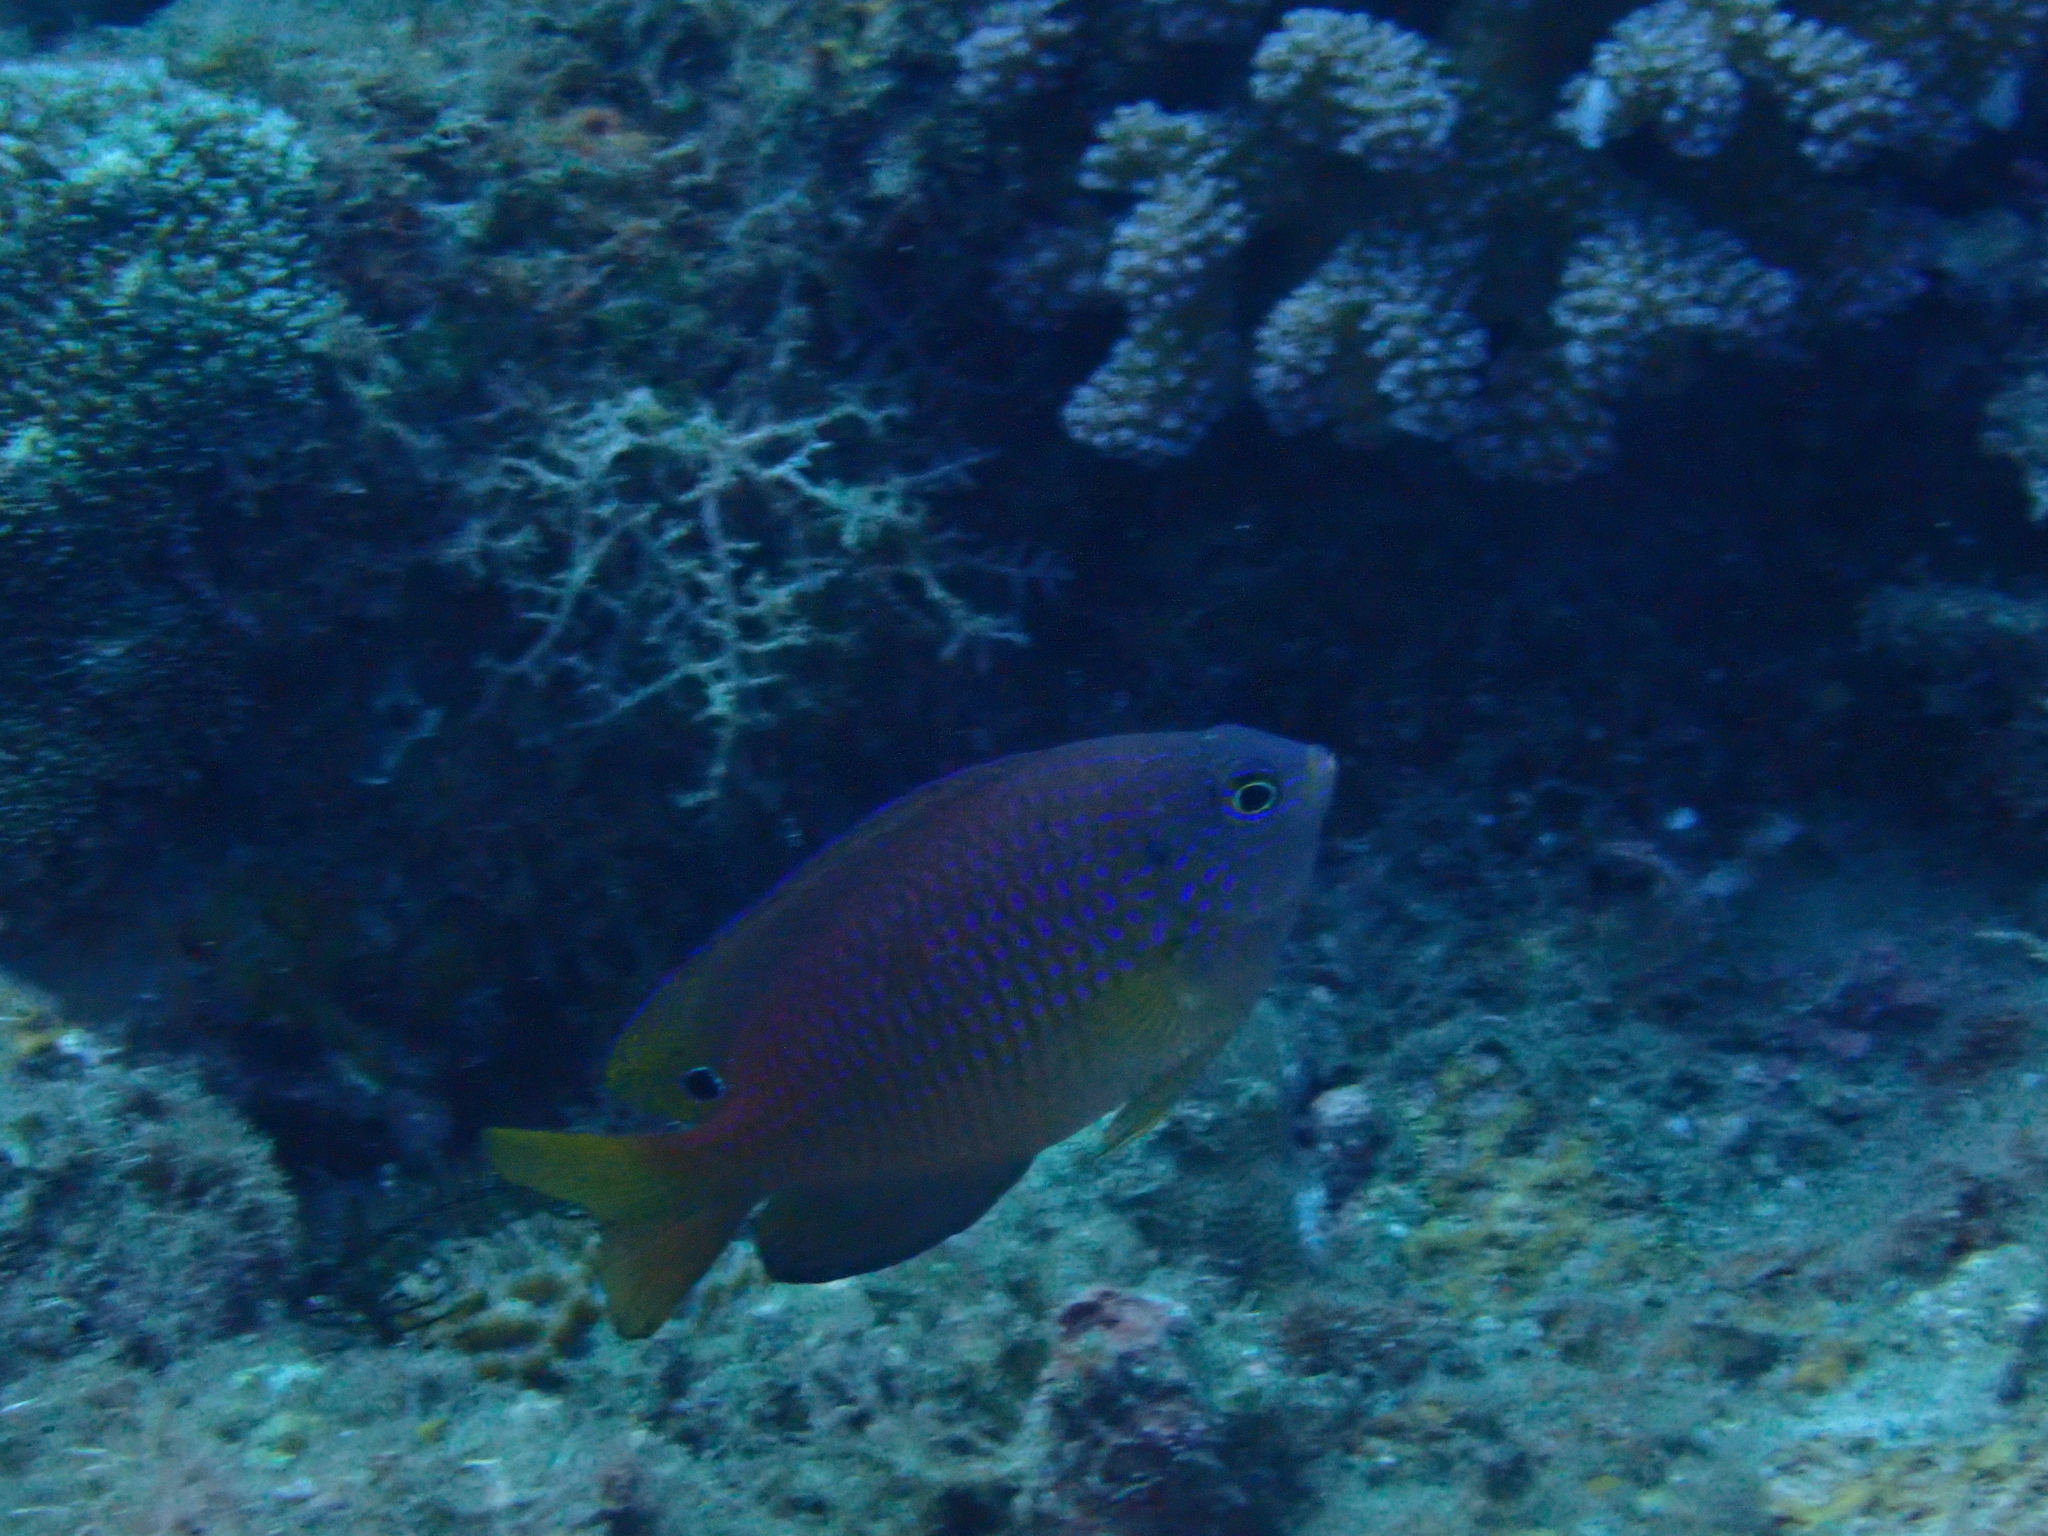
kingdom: Animalia
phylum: Chordata
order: Perciformes
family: Pomacentridae
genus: Pomacentrus
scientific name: Pomacentrus vaiuli
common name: Princess damsel
